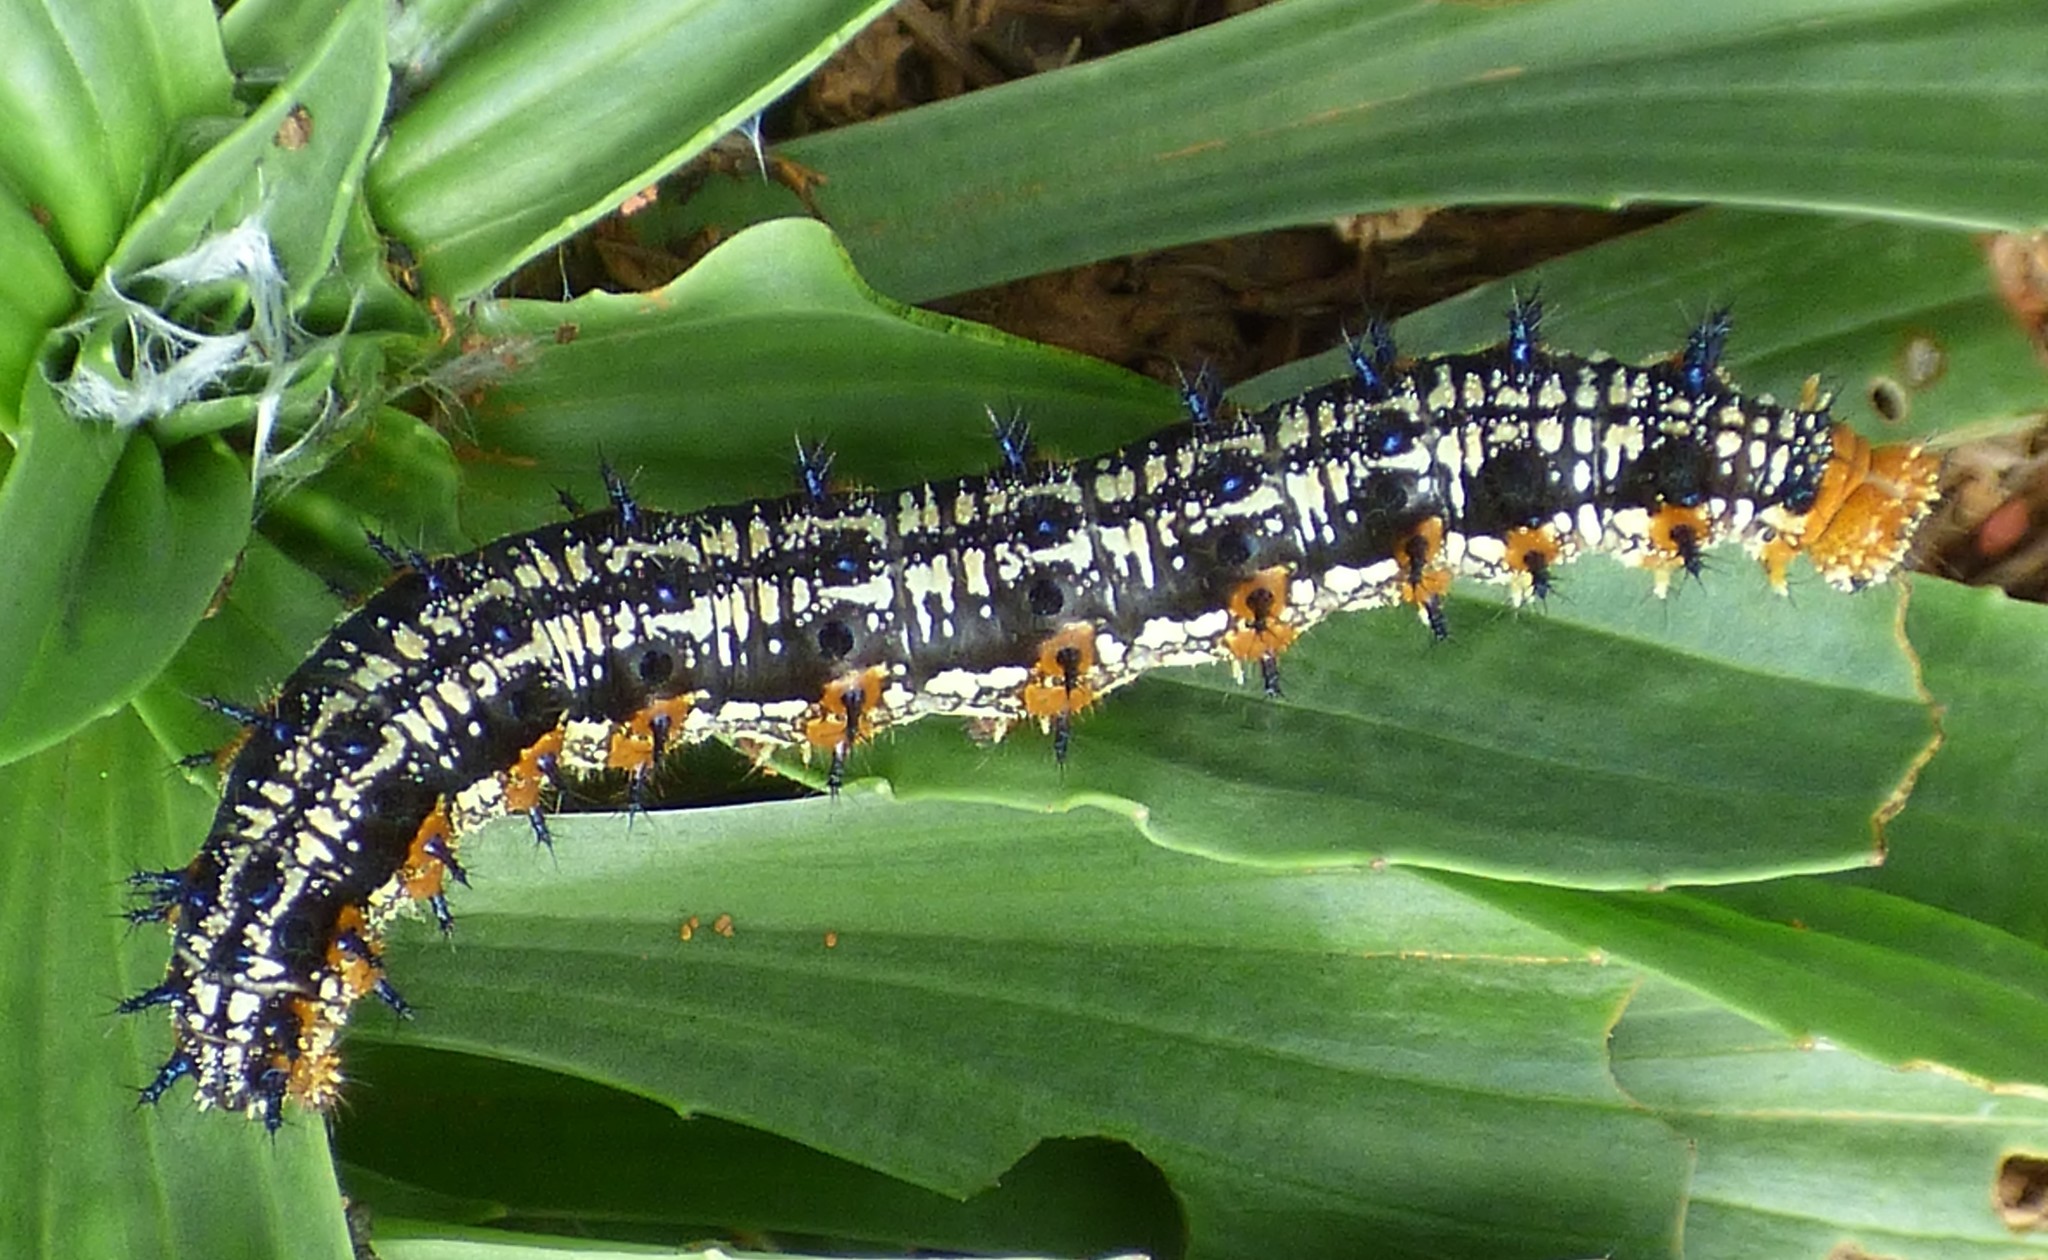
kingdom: Animalia
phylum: Arthropoda
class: Insecta
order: Lepidoptera
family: Nymphalidae
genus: Junonia
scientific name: Junonia coenia
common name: Common buckeye
